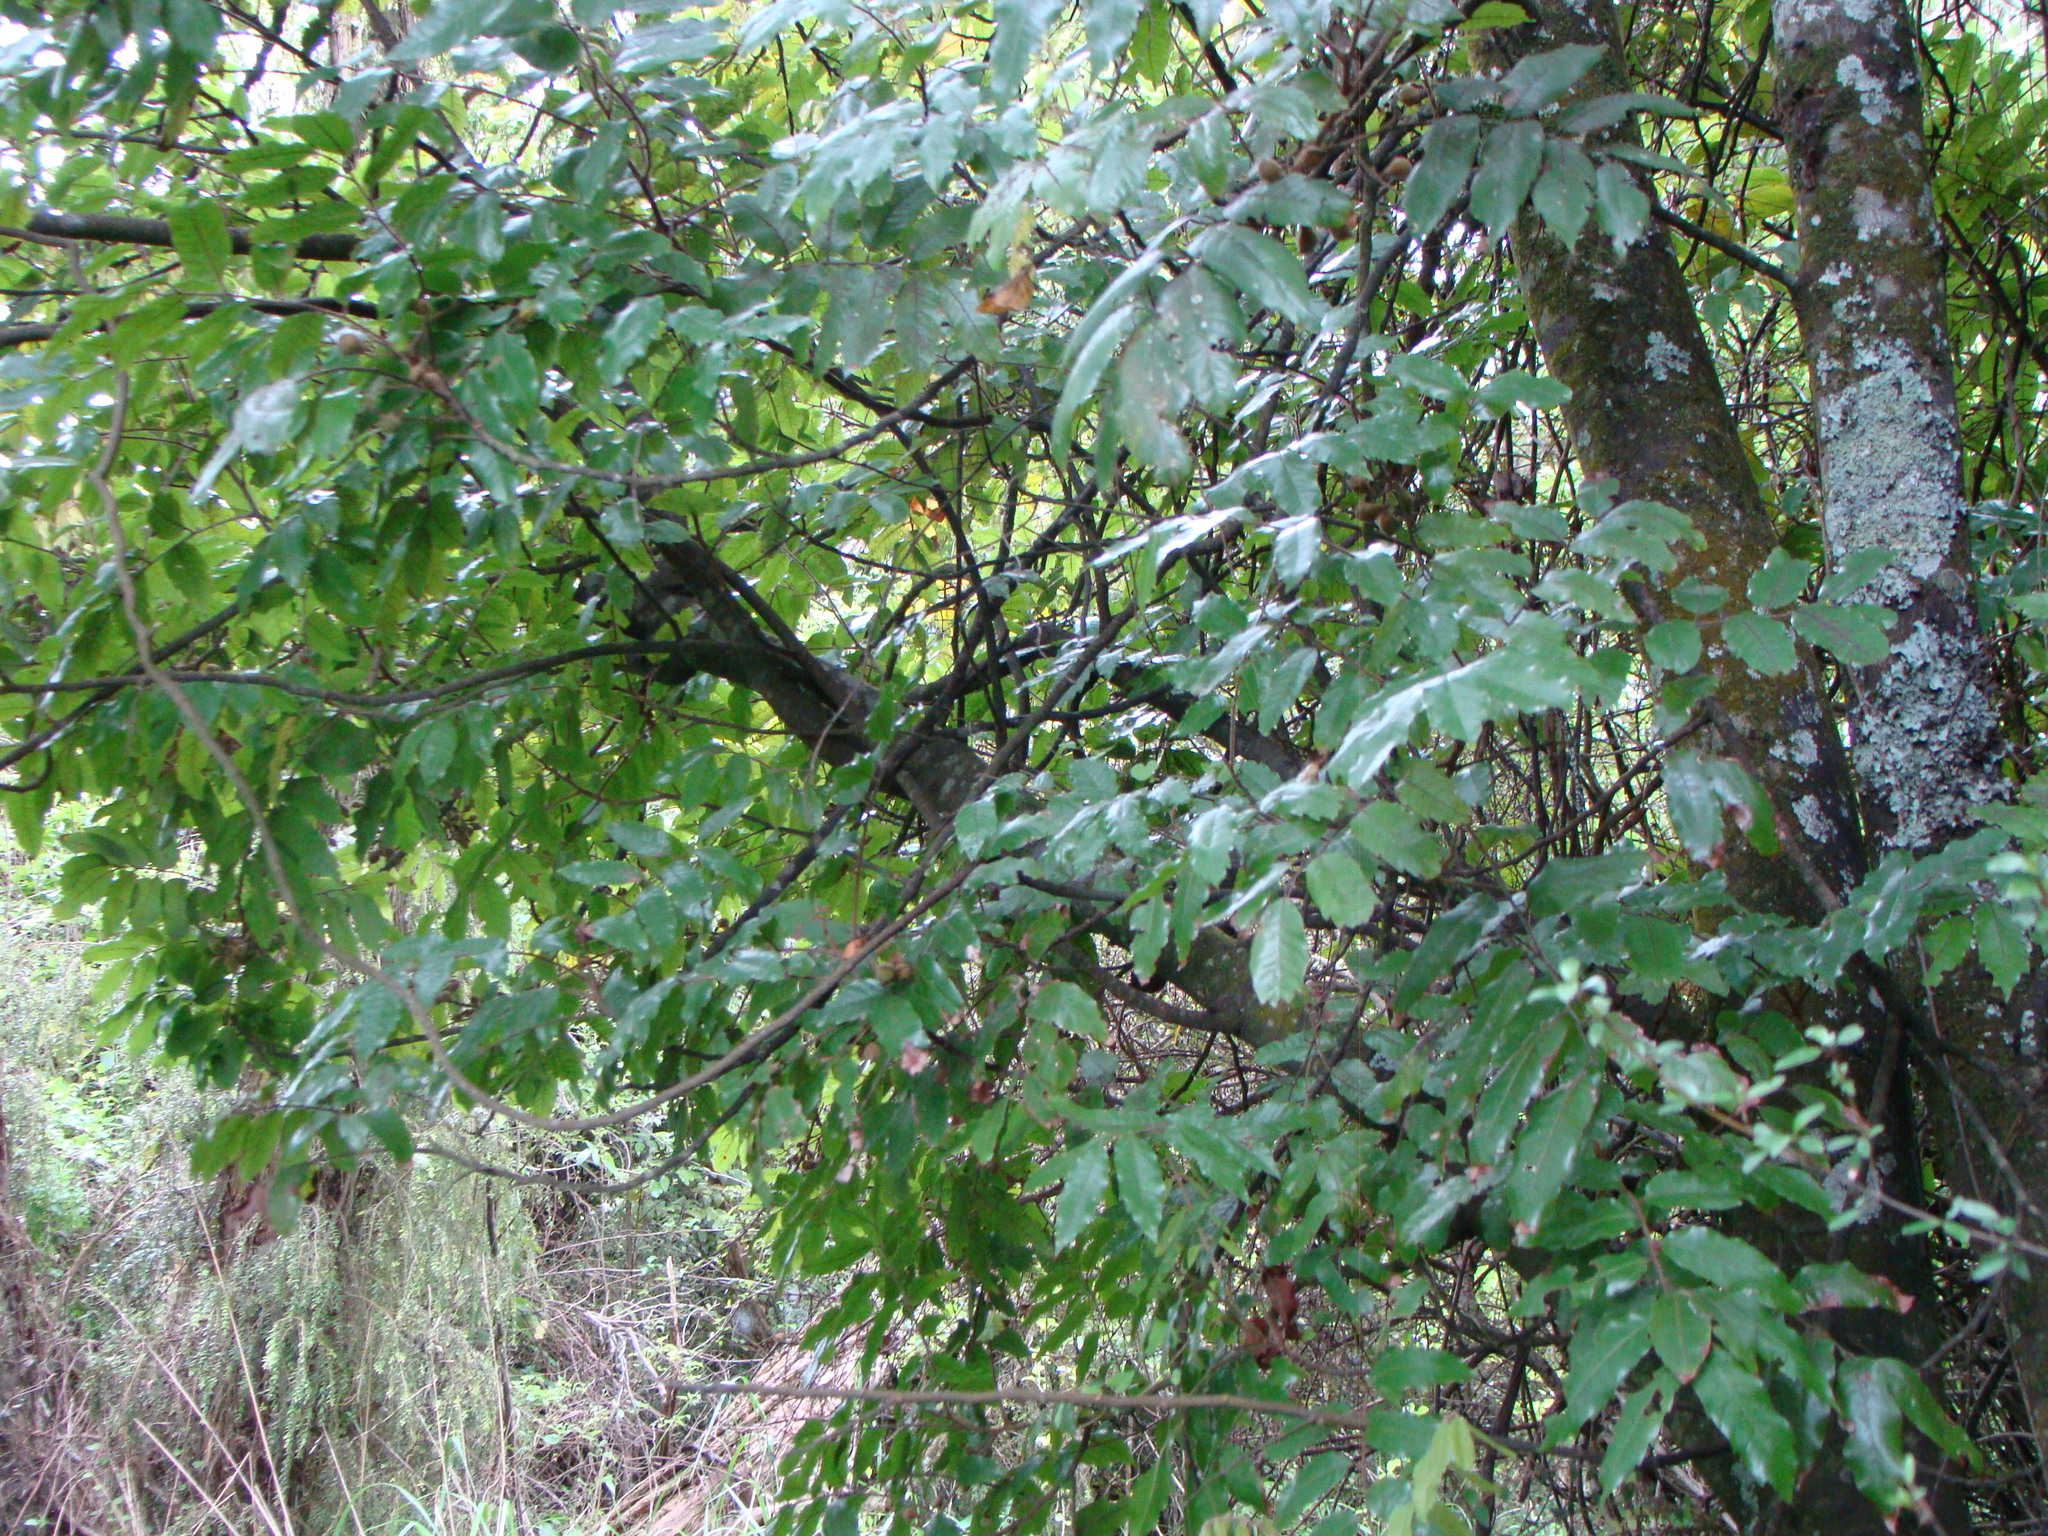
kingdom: Plantae
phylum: Tracheophyta
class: Magnoliopsida
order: Sapindales
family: Sapindaceae
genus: Alectryon
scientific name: Alectryon excelsus
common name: Three kings titoki
